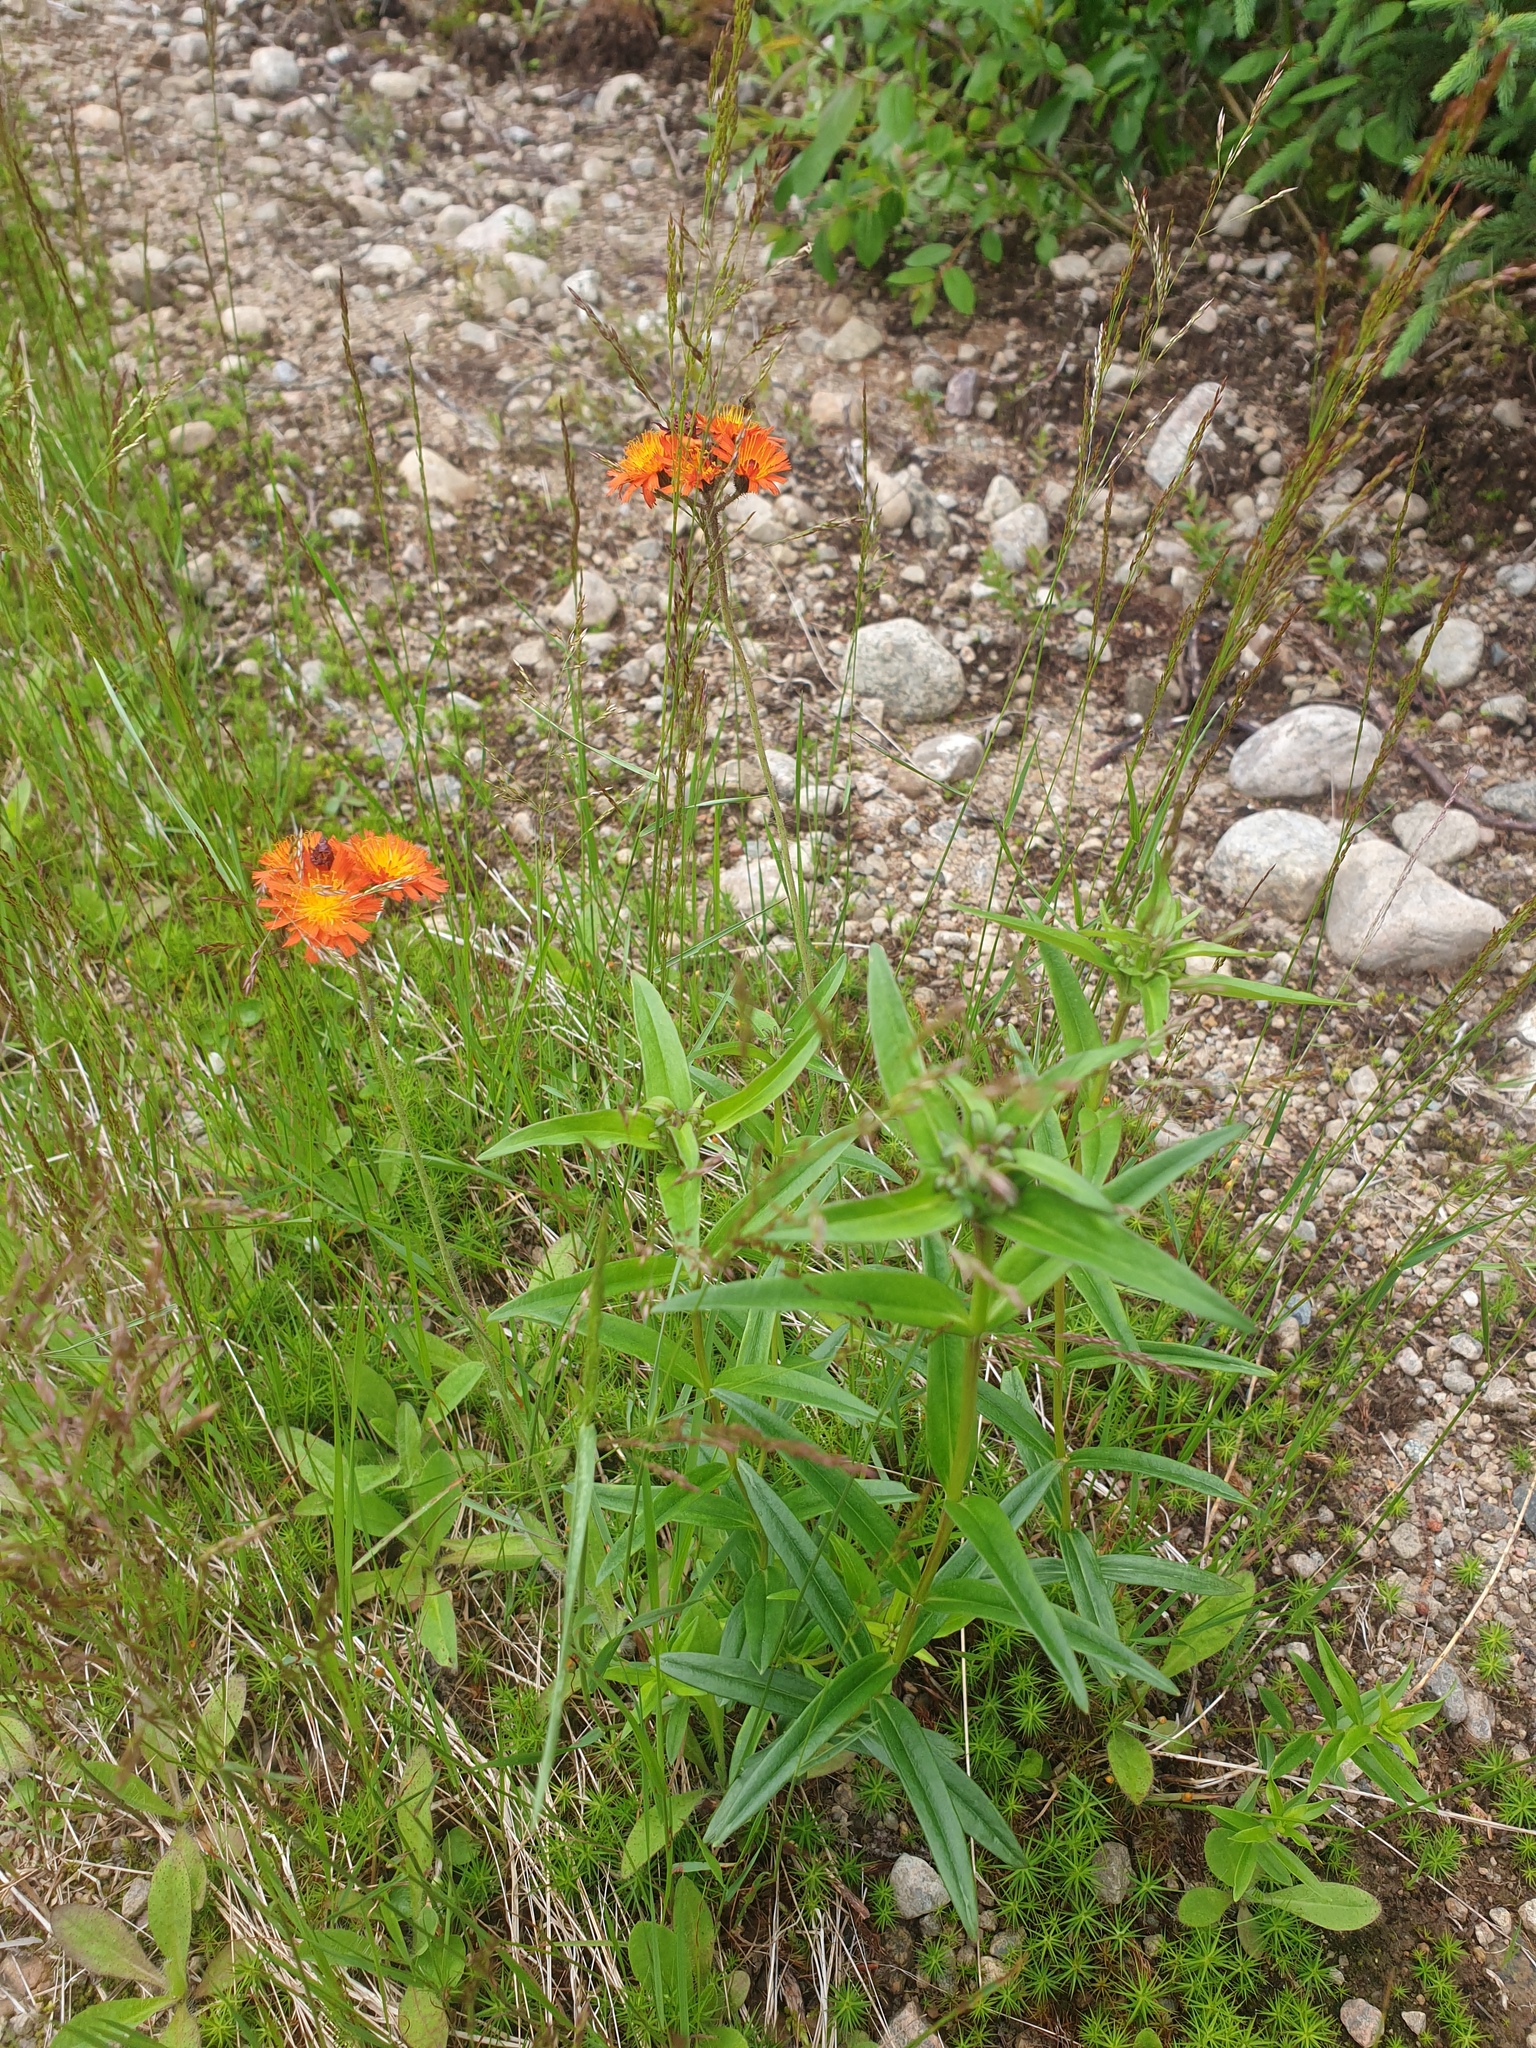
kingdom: Plantae
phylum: Tracheophyta
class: Magnoliopsida
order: Gentianales
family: Gentianaceae
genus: Gentiana
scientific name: Gentiana linearis
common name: Bastard gentian
